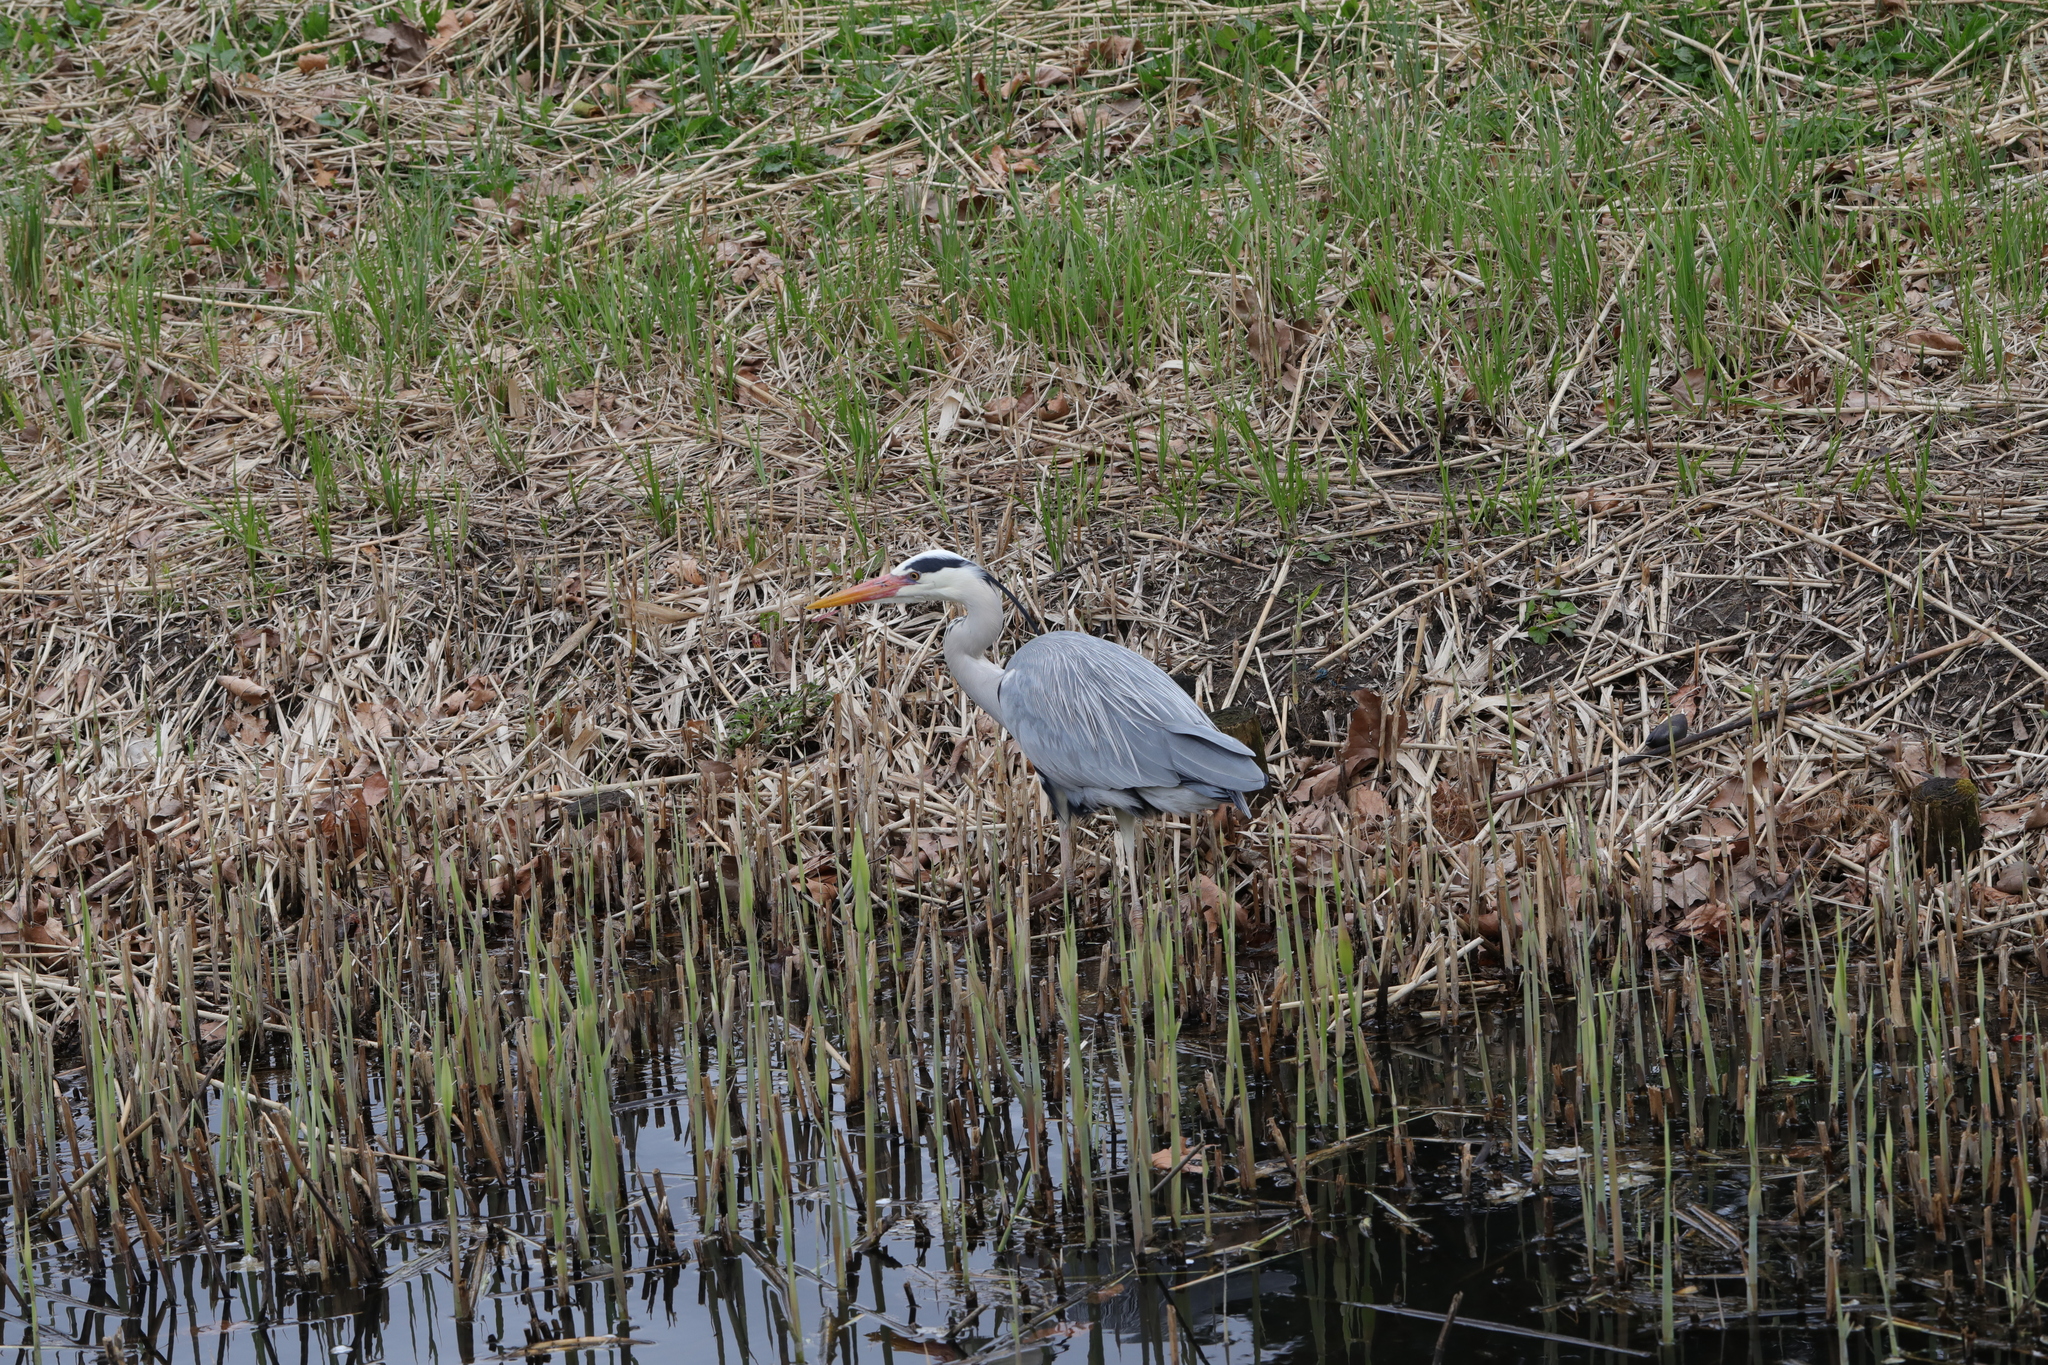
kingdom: Animalia
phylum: Chordata
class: Aves
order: Pelecaniformes
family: Ardeidae
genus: Ardea
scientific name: Ardea cinerea
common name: Grey heron
